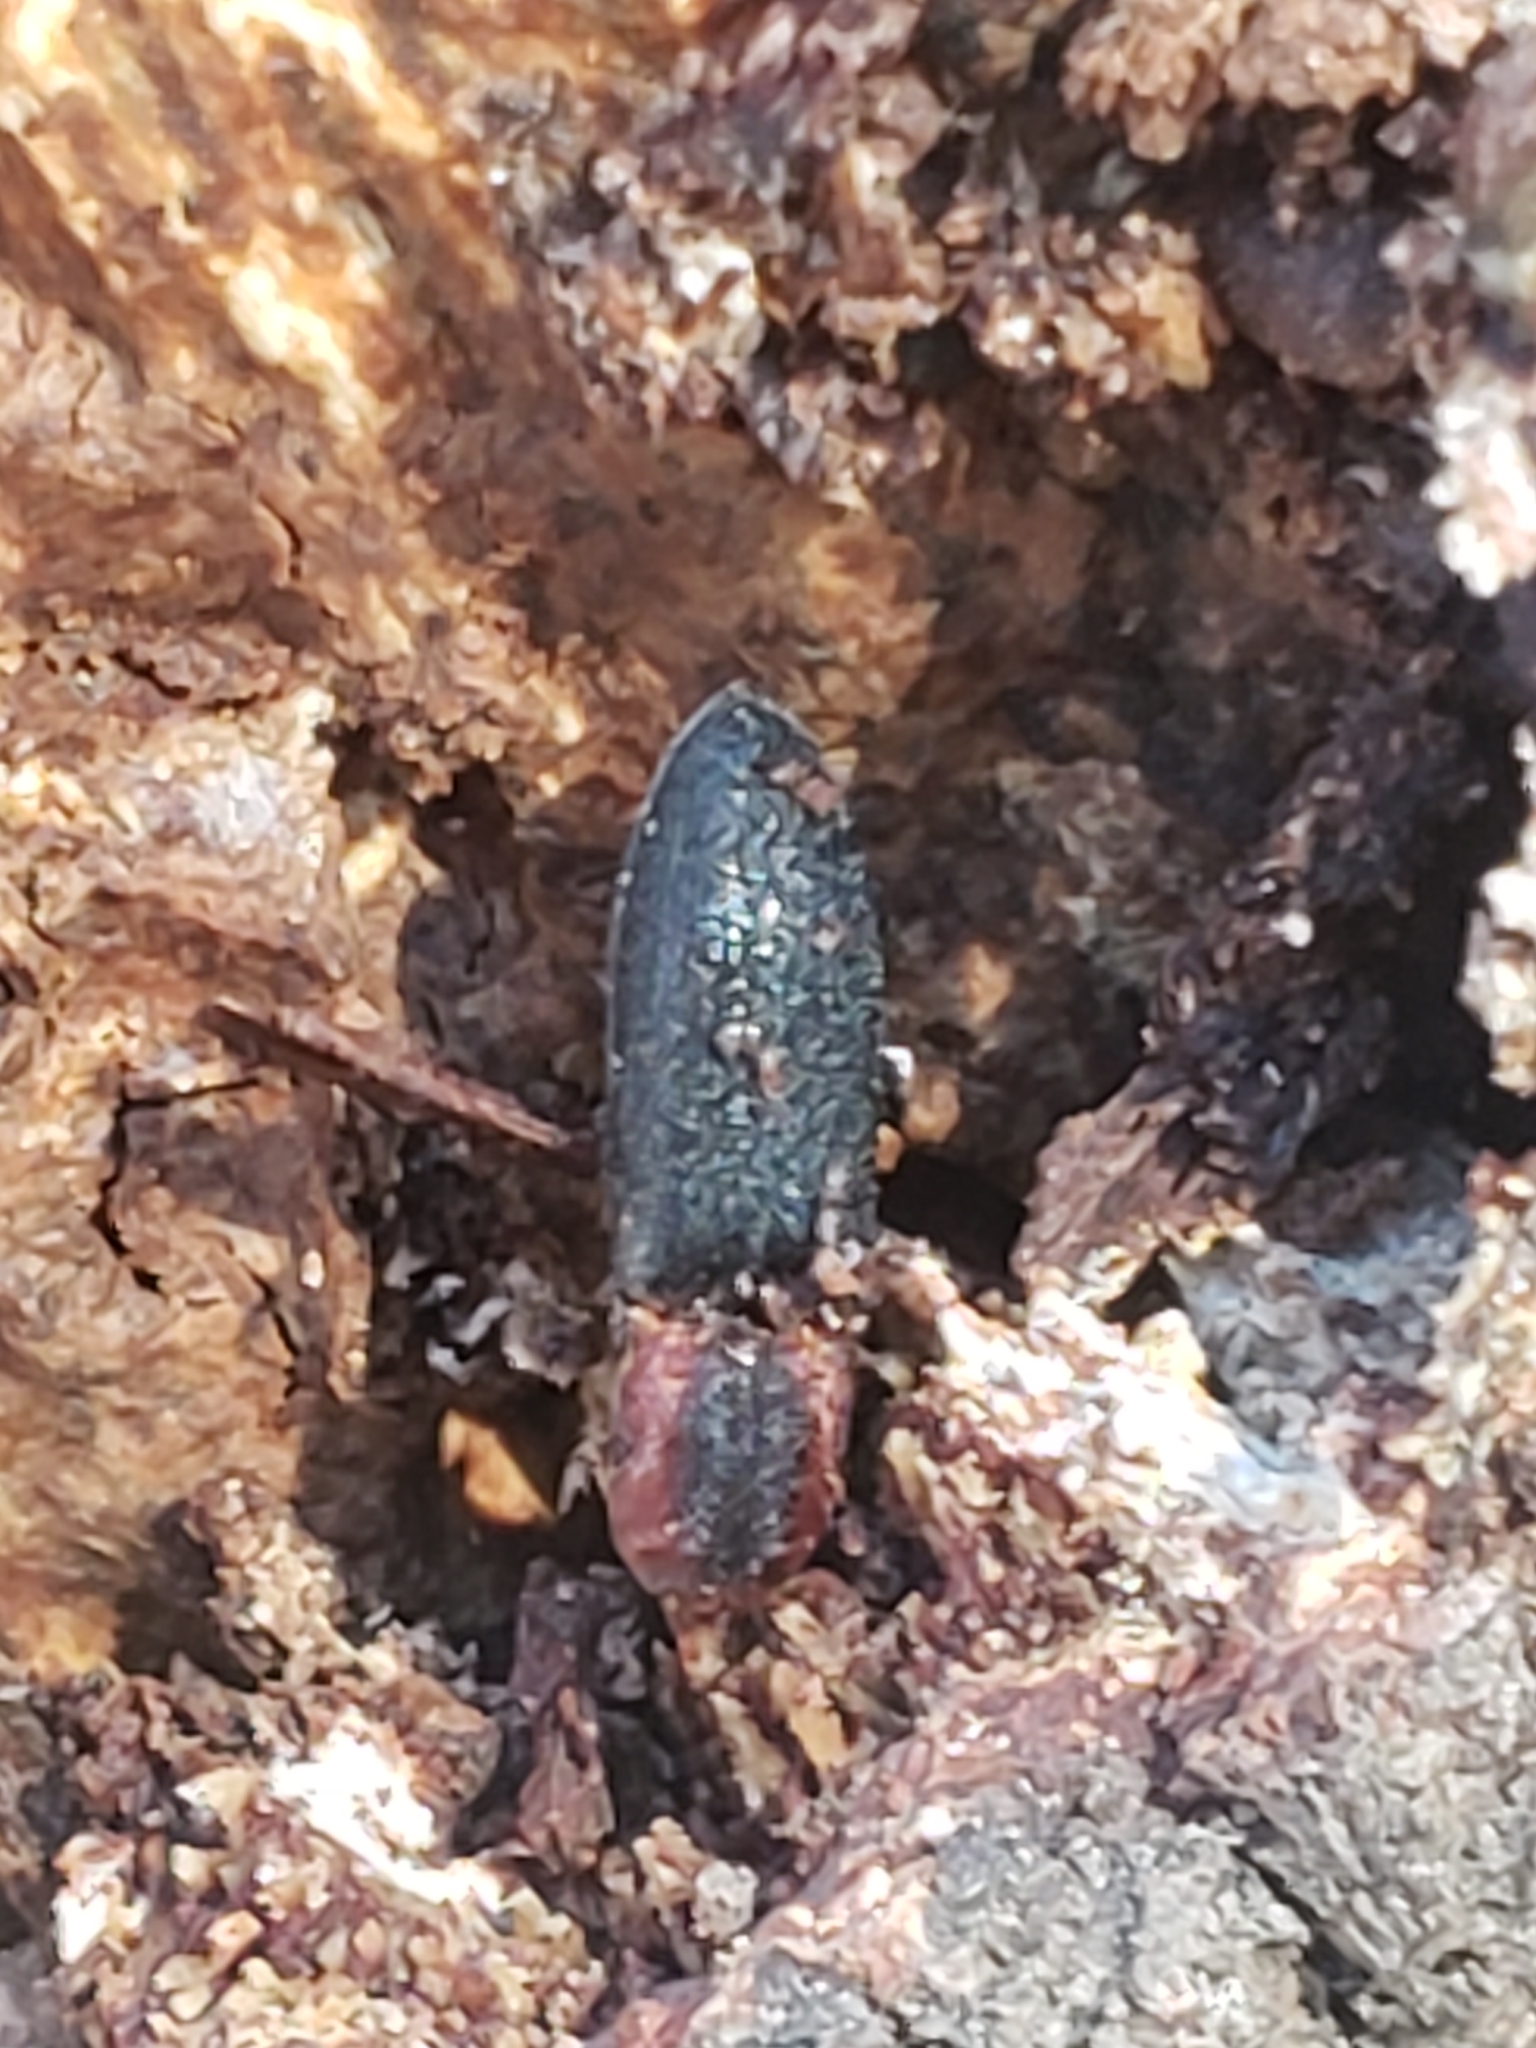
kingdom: Animalia
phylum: Arthropoda
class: Insecta
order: Coleoptera
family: Elateridae
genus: Lacon
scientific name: Lacon discoideus
